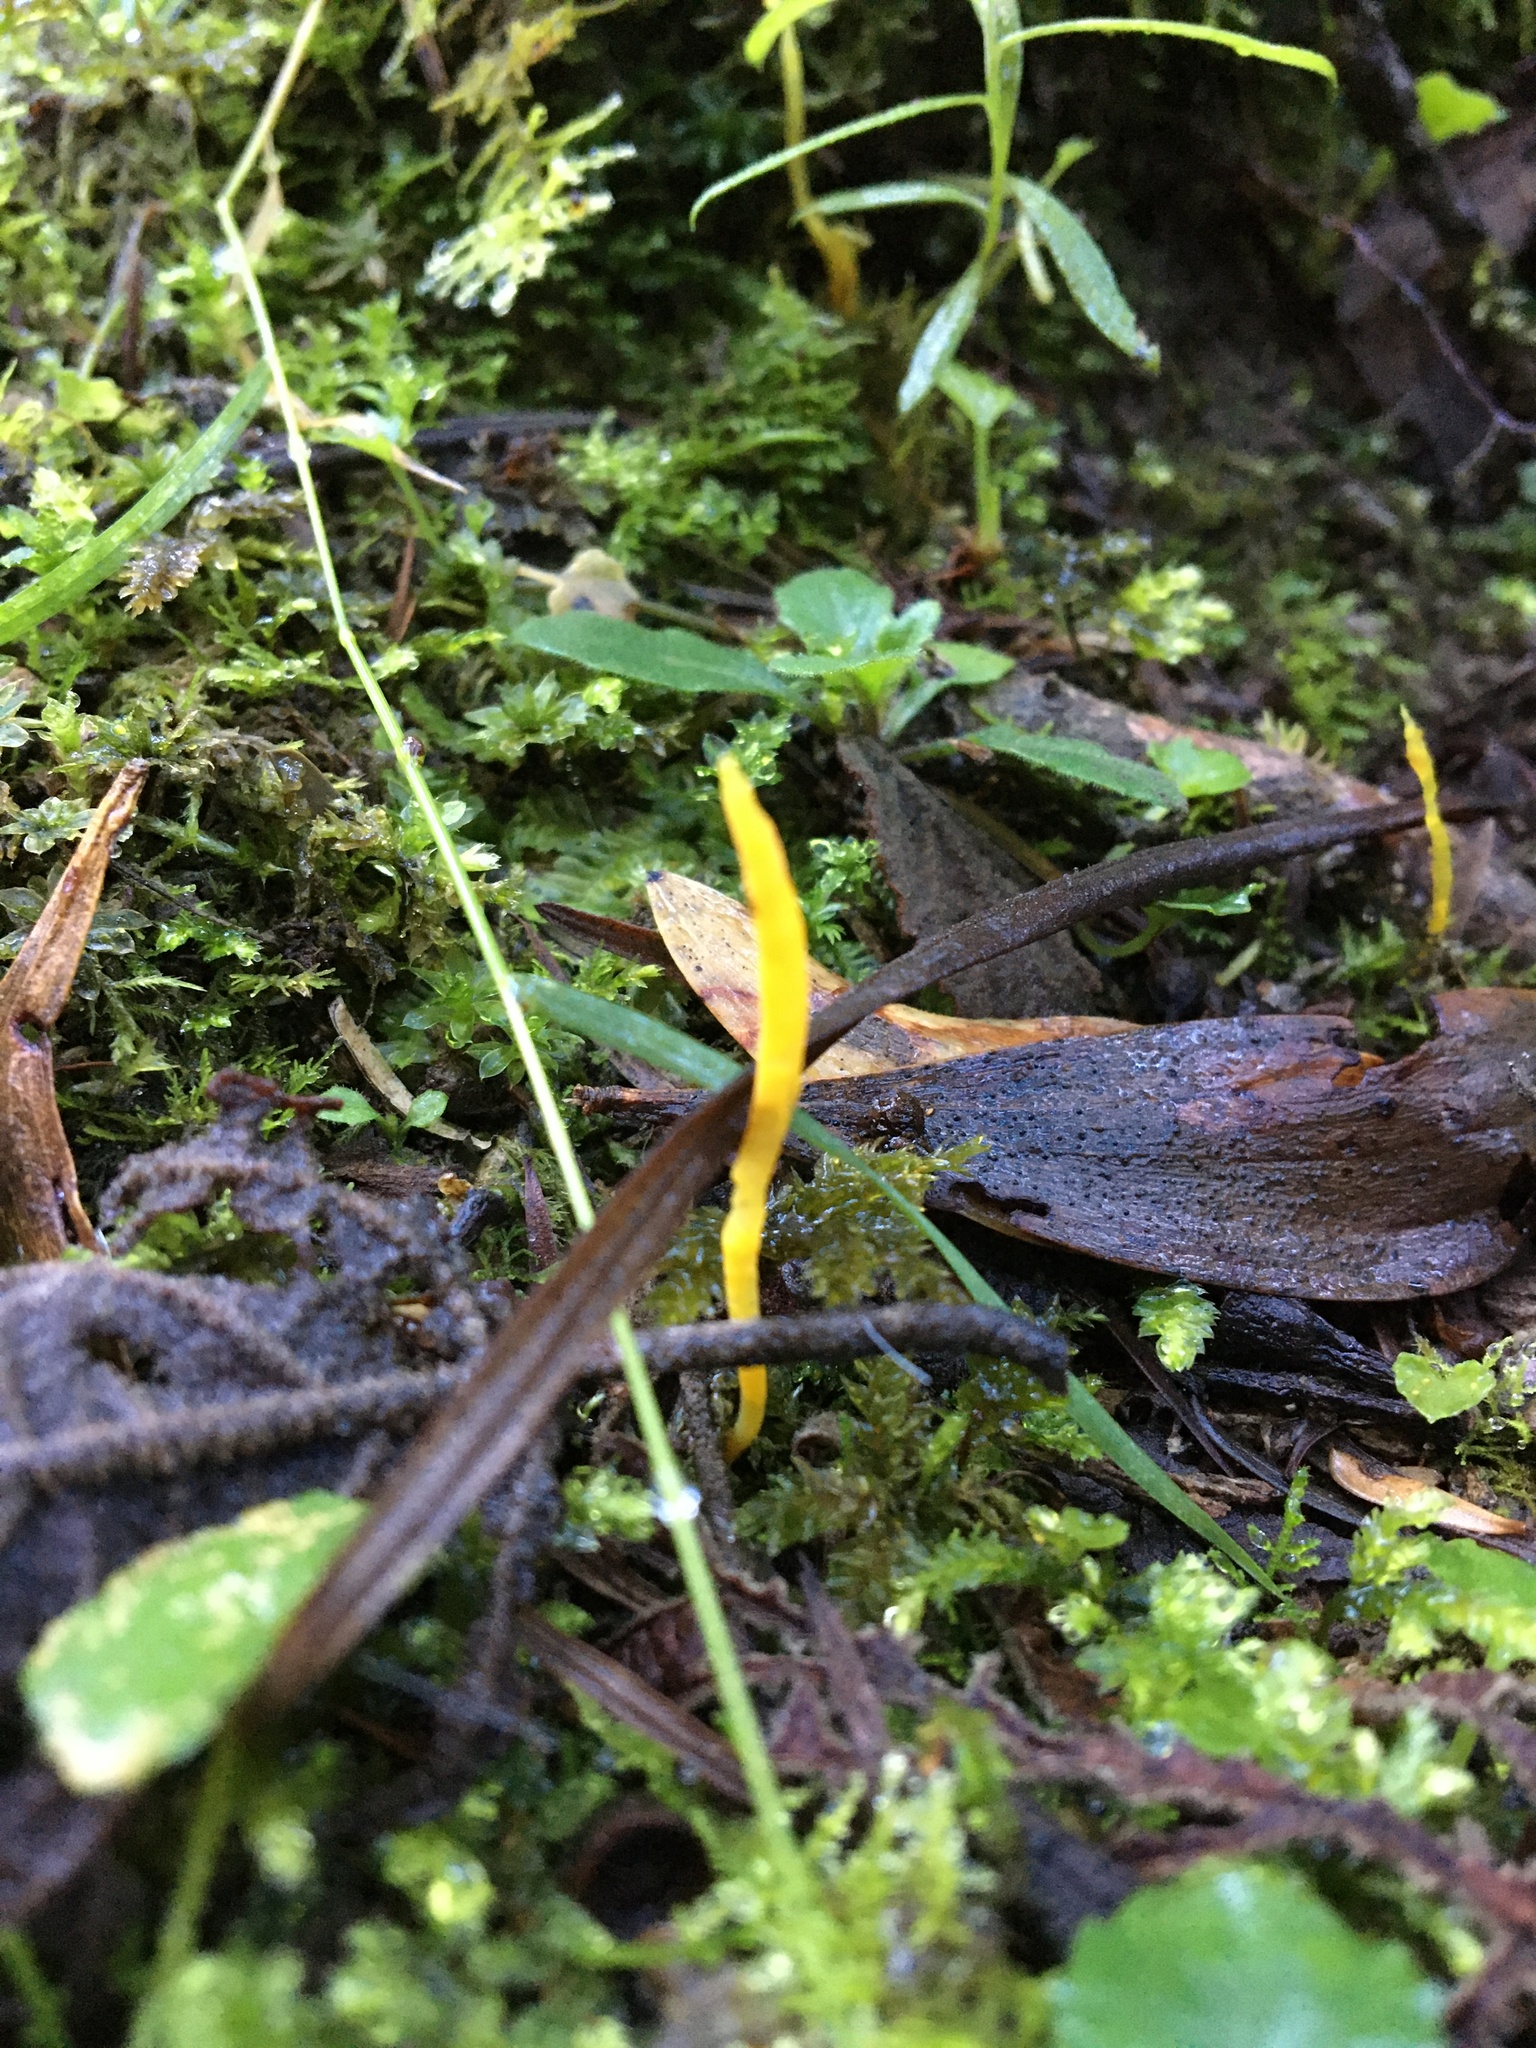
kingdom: Fungi
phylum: Basidiomycota
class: Agaricomycetes
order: Agaricales
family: Clavariaceae
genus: Clavulinopsis
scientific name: Clavulinopsis amoena
